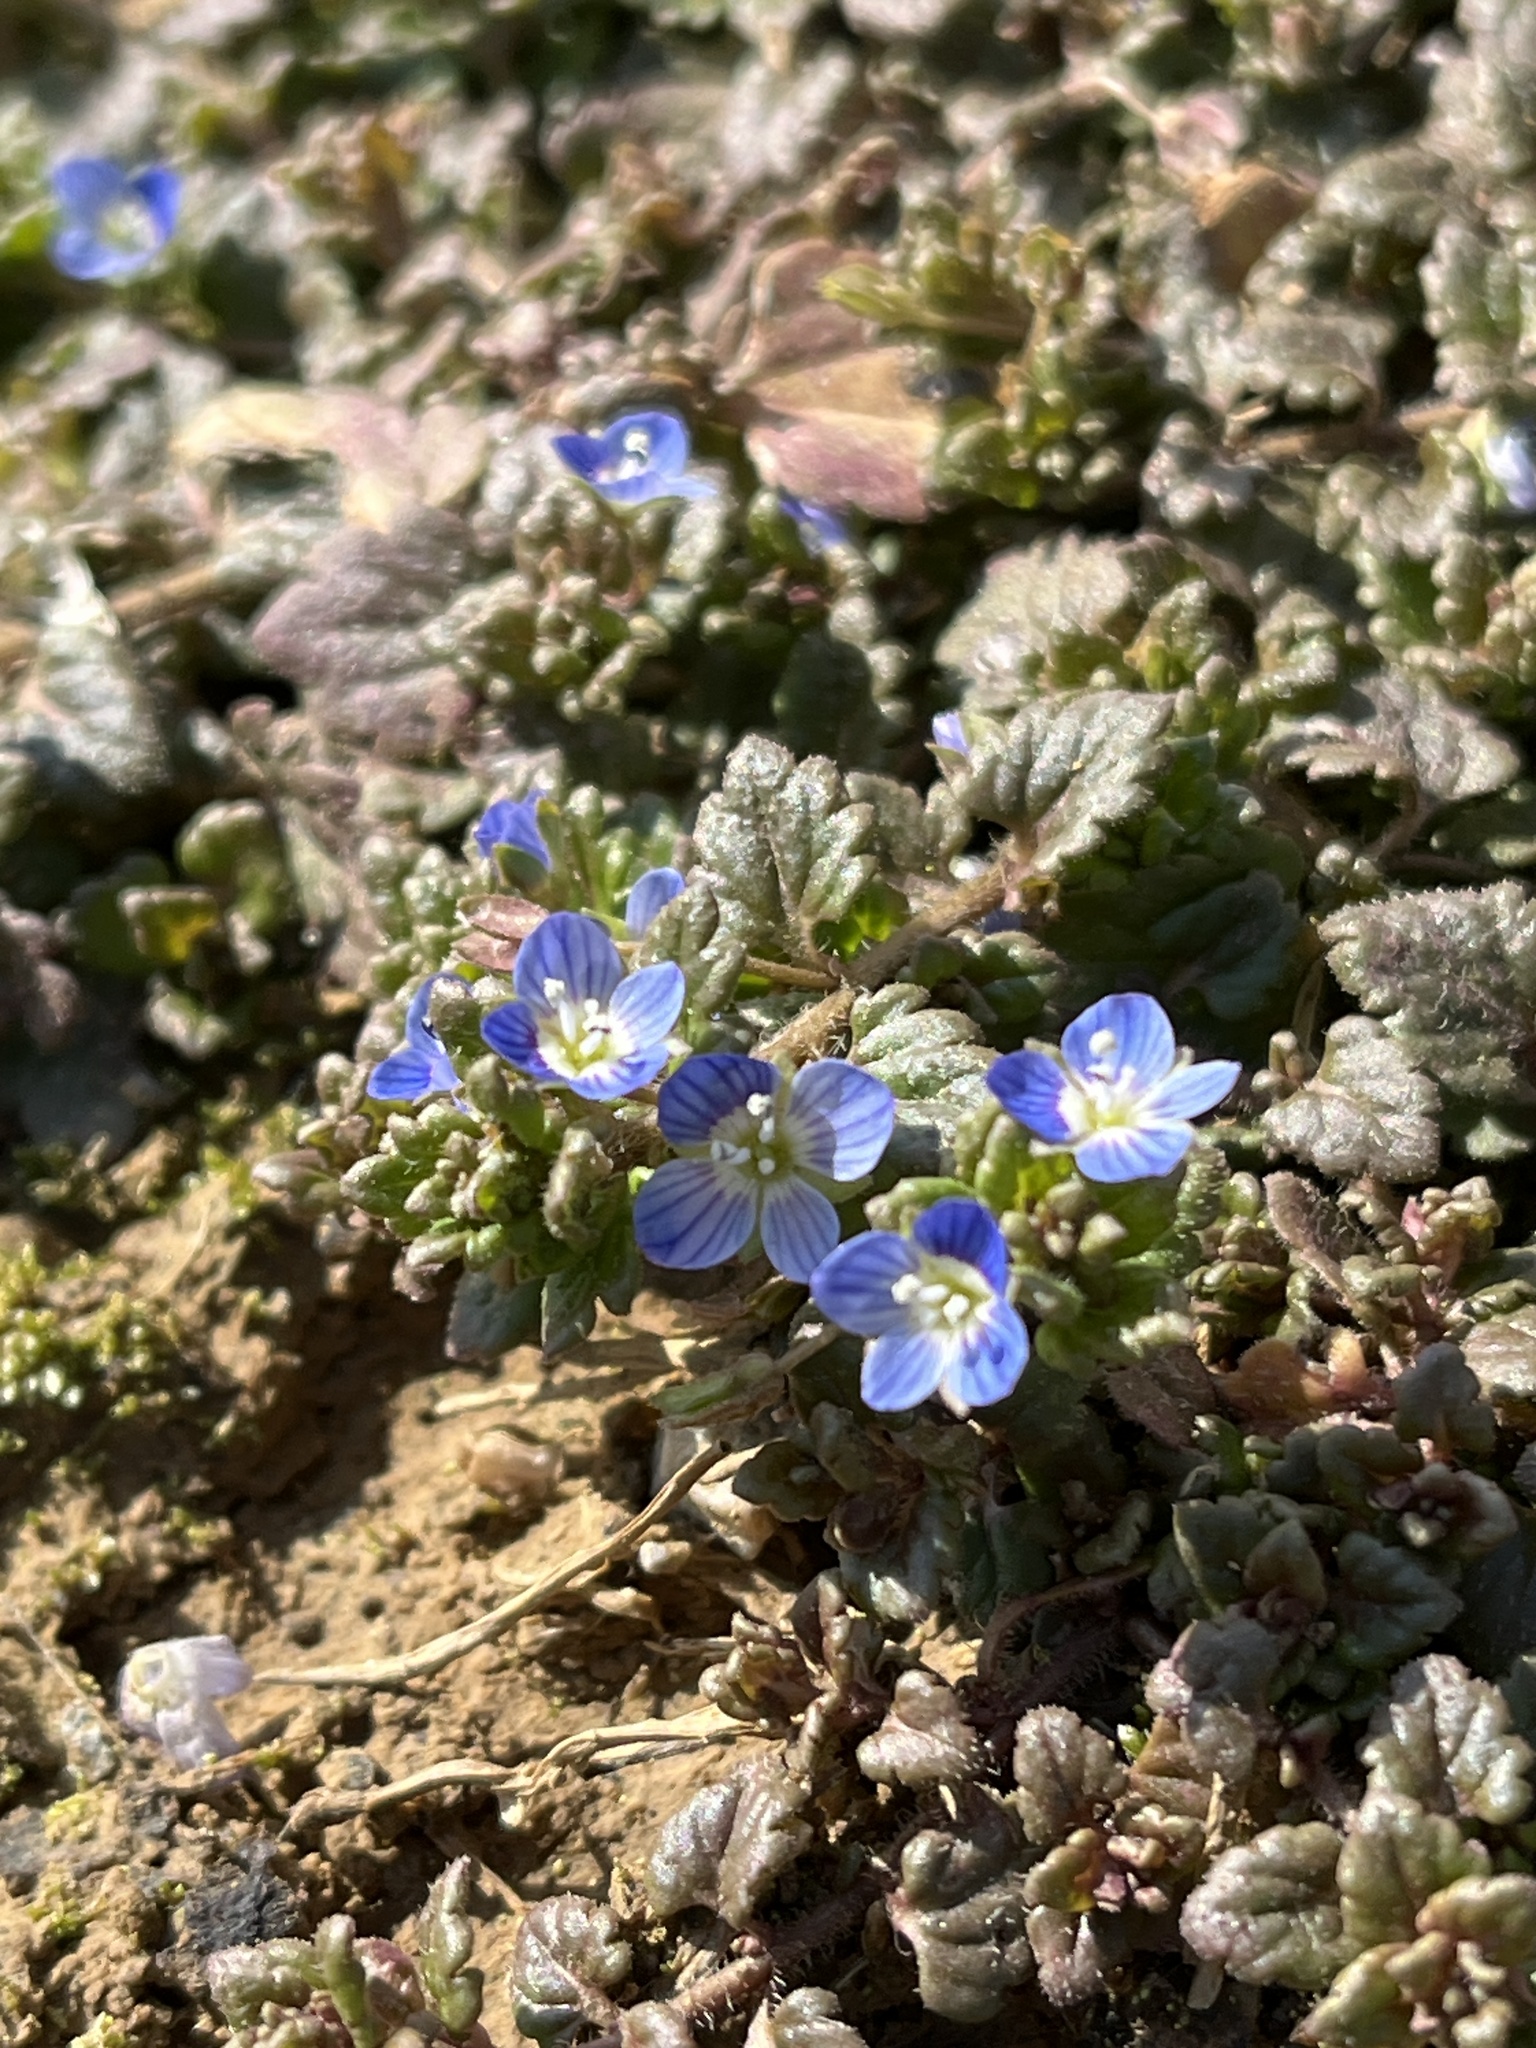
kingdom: Plantae
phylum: Tracheophyta
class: Magnoliopsida
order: Lamiales
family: Plantaginaceae
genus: Veronica
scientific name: Veronica polita
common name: Grey field-speedwell
